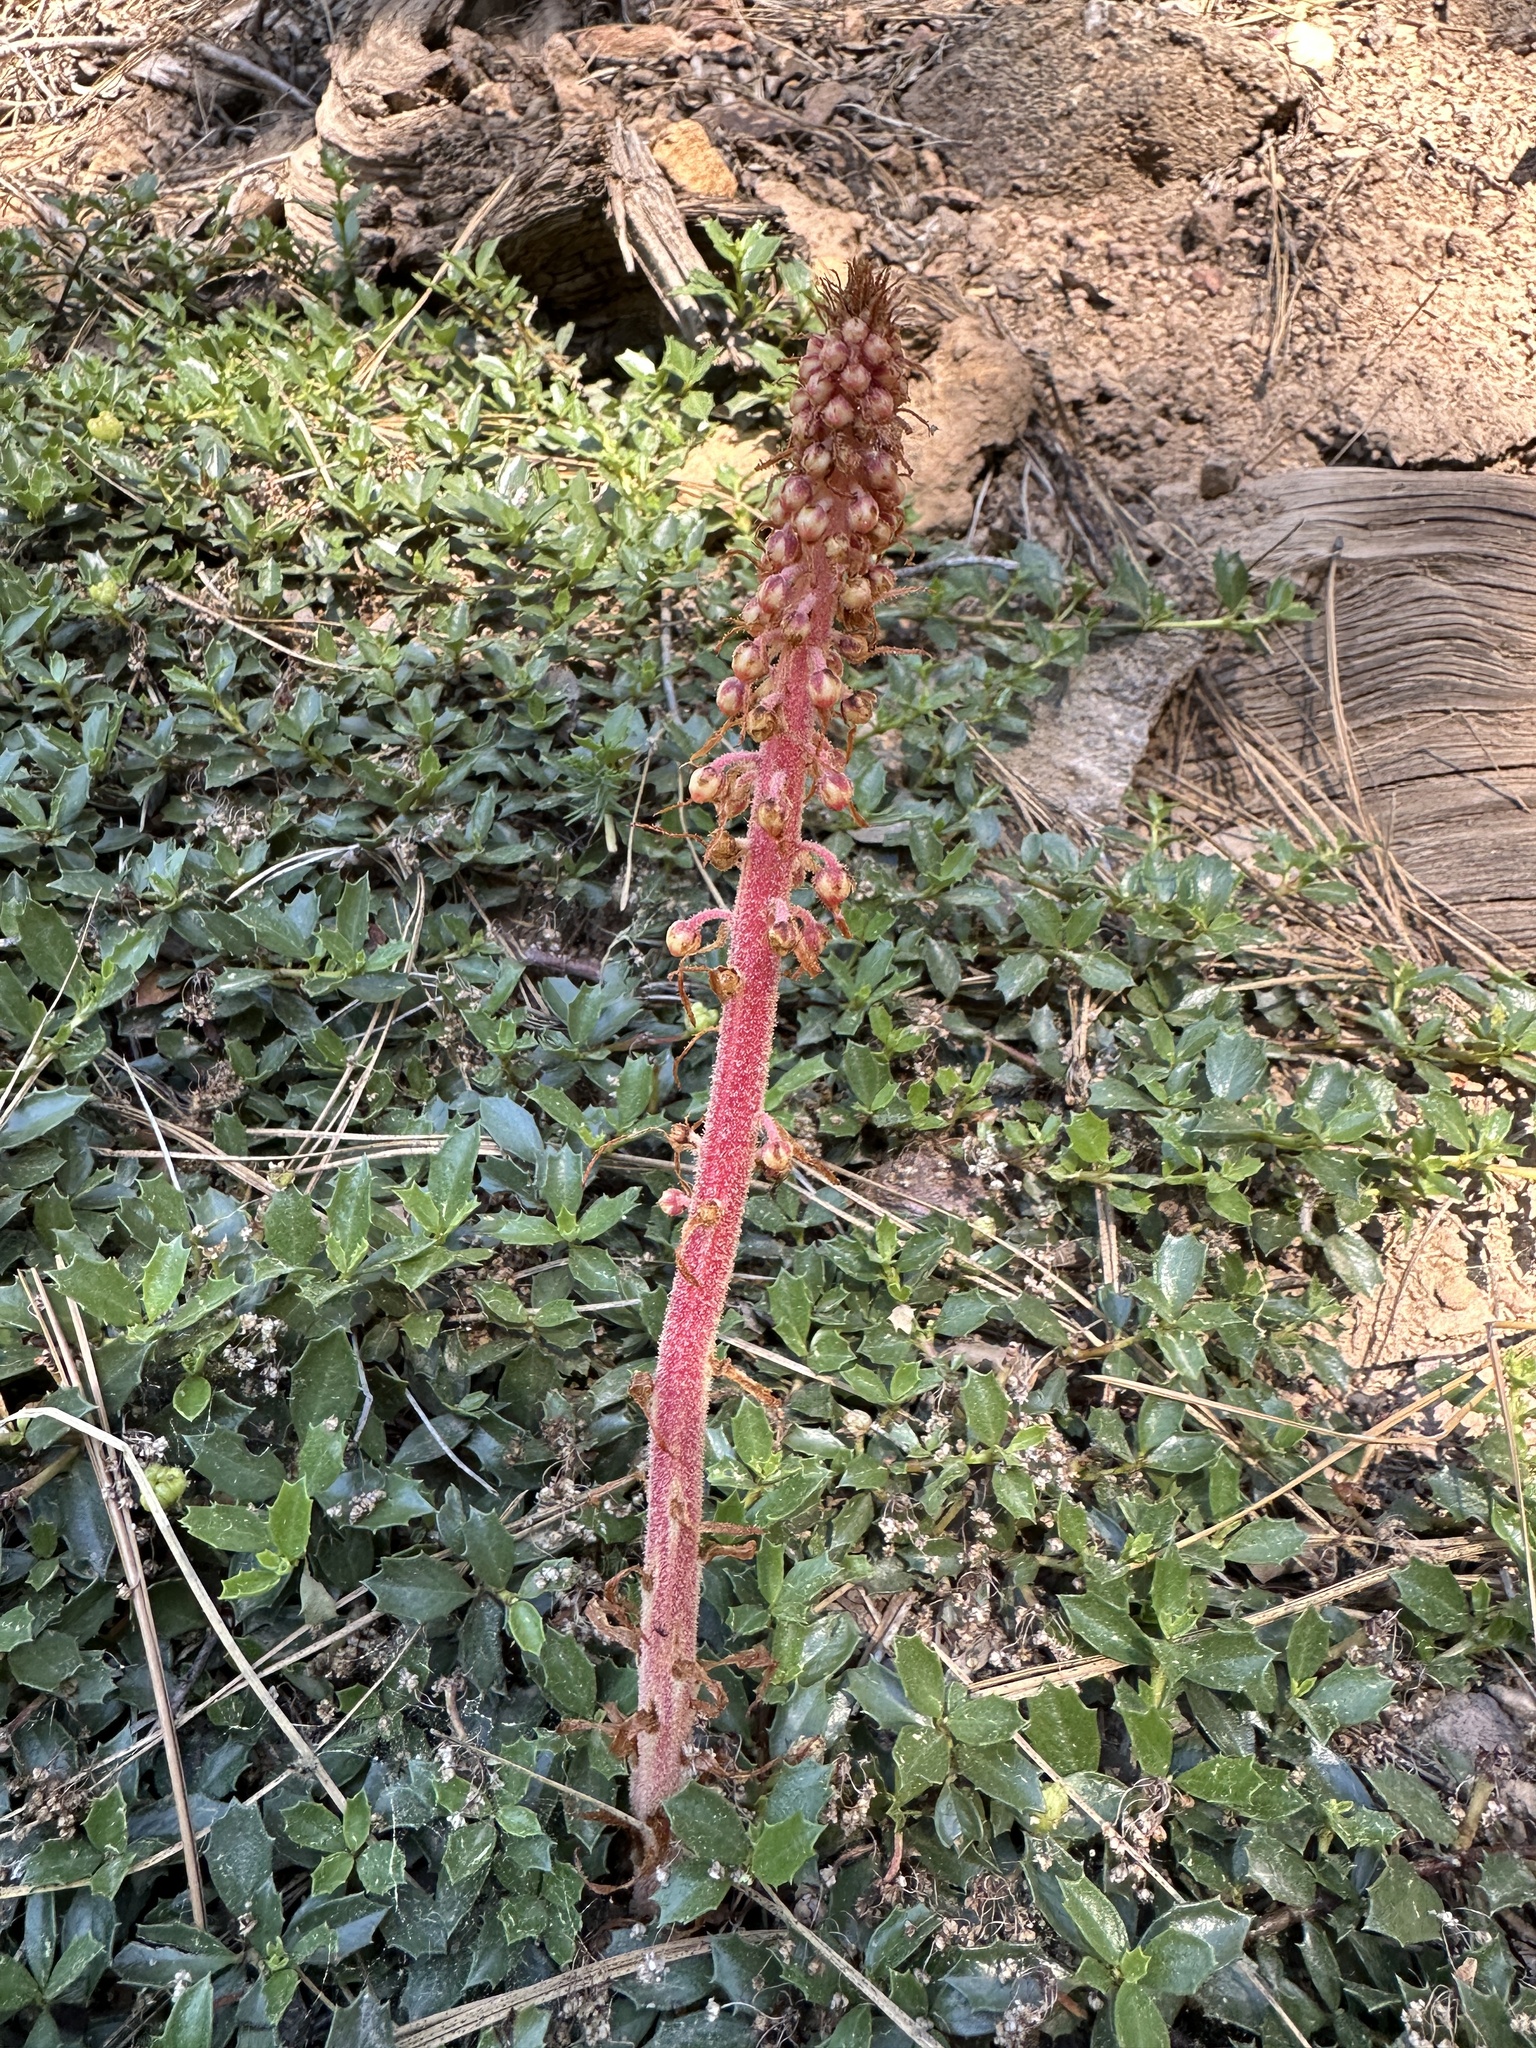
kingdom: Plantae
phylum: Tracheophyta
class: Magnoliopsida
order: Ericales
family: Ericaceae
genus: Pterospora
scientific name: Pterospora andromedea
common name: Giant bird's-nest
